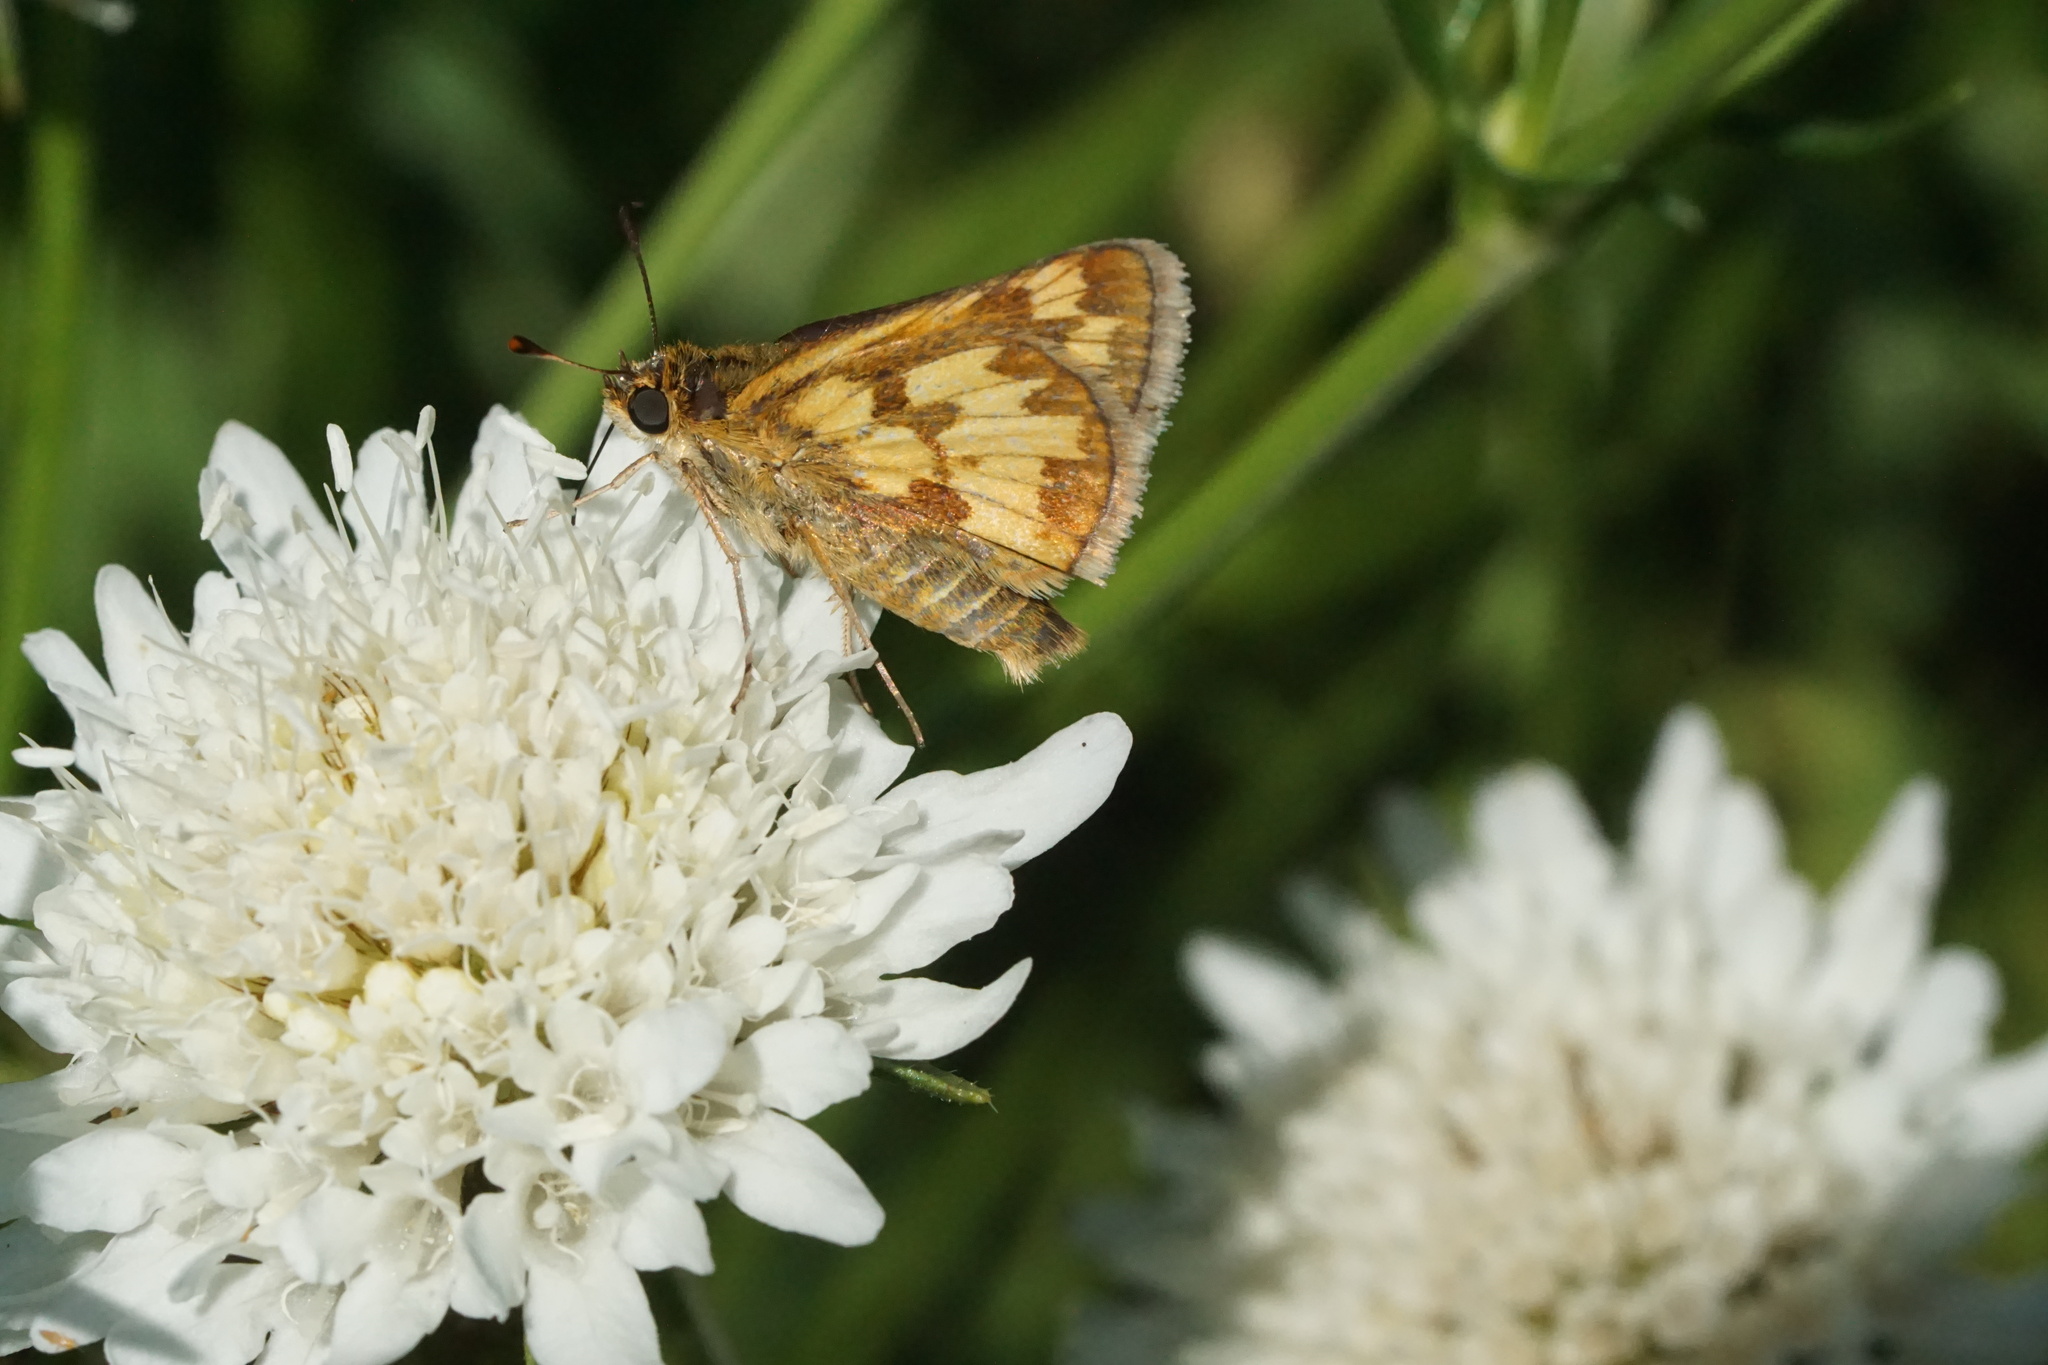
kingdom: Animalia
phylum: Arthropoda
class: Insecta
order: Lepidoptera
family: Hesperiidae
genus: Polites
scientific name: Polites coras
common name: Peck's skipper
